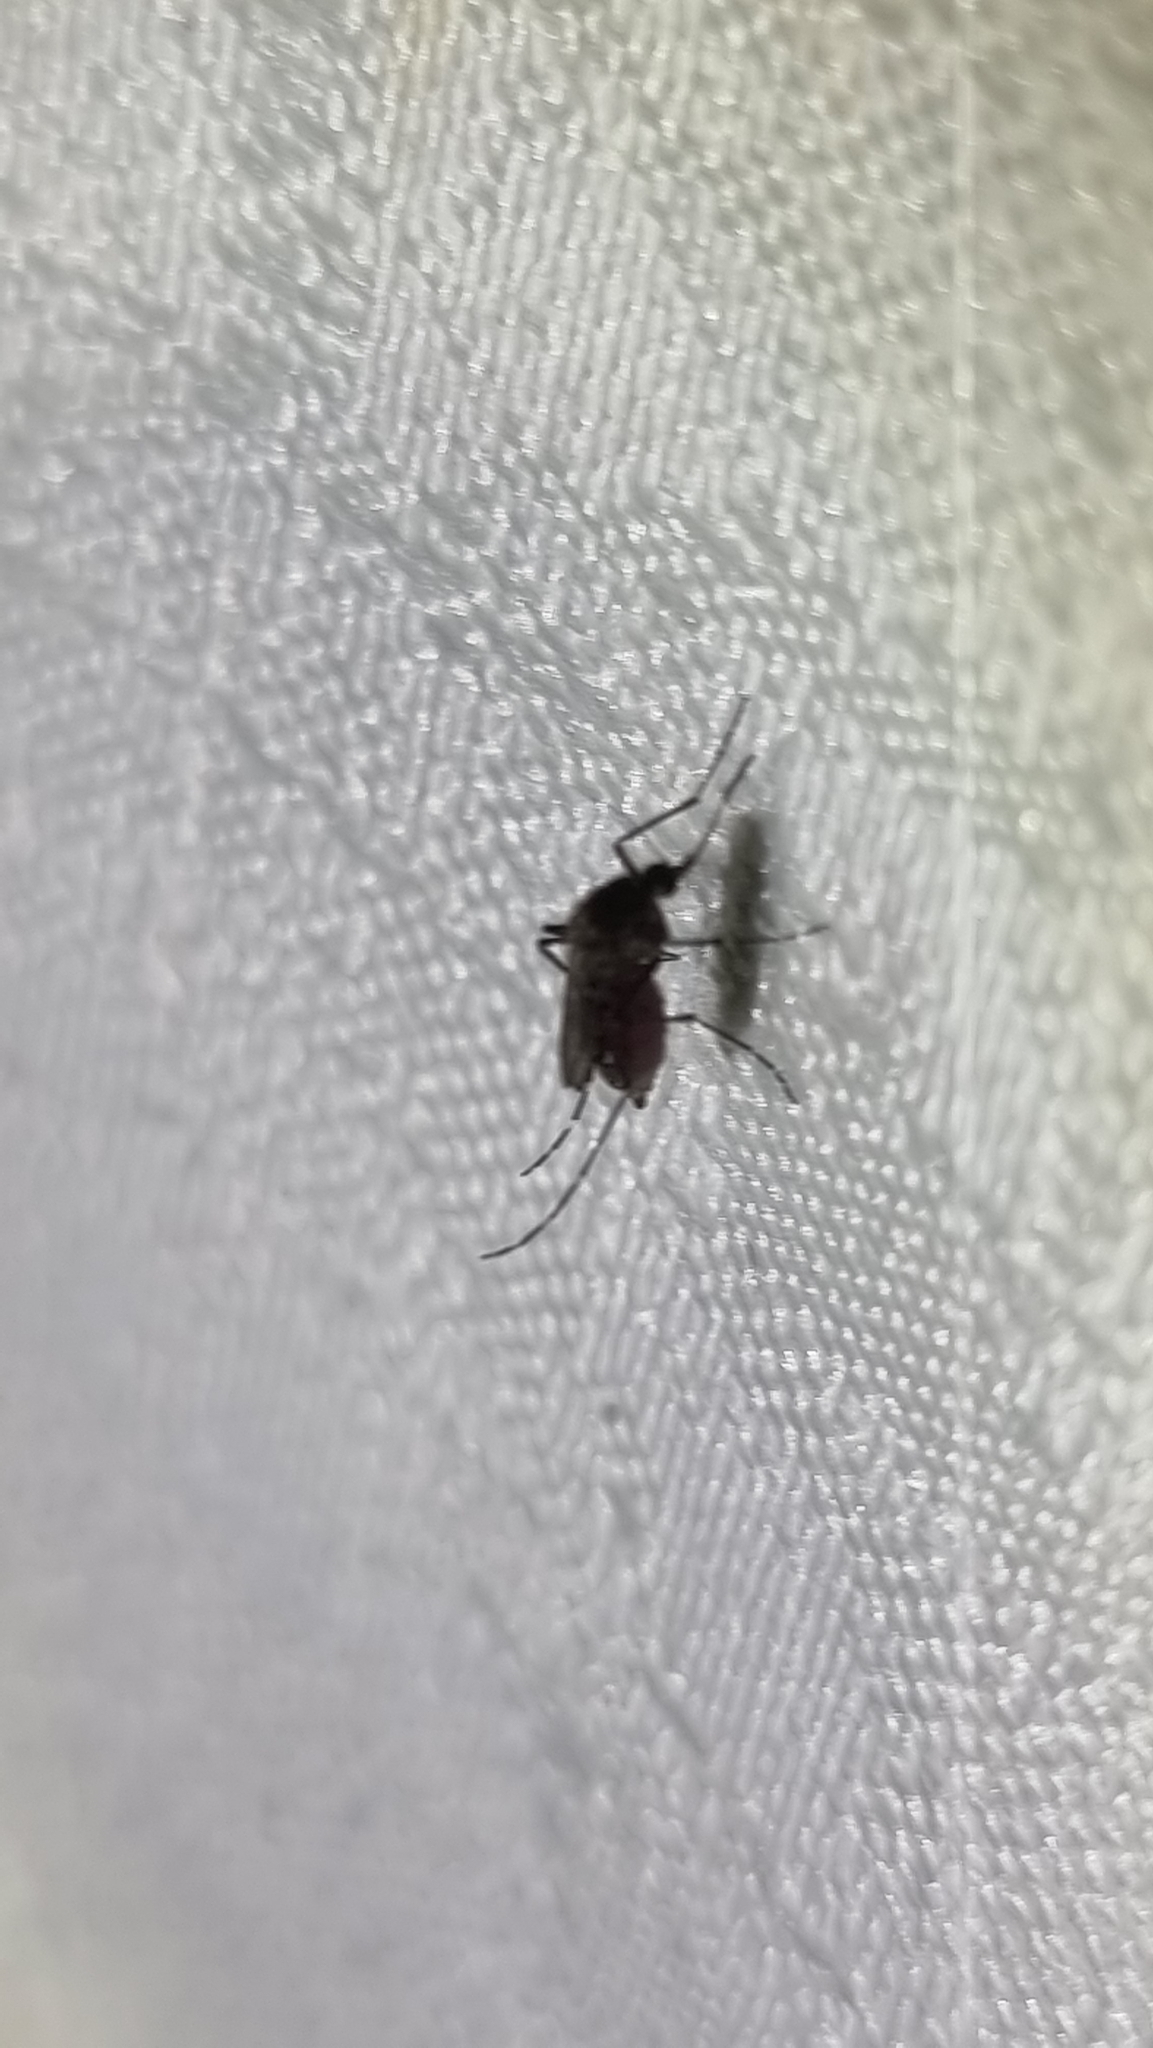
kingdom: Animalia
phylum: Arthropoda
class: Insecta
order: Diptera
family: Culicidae
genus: Aedes
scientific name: Aedes vigilax
